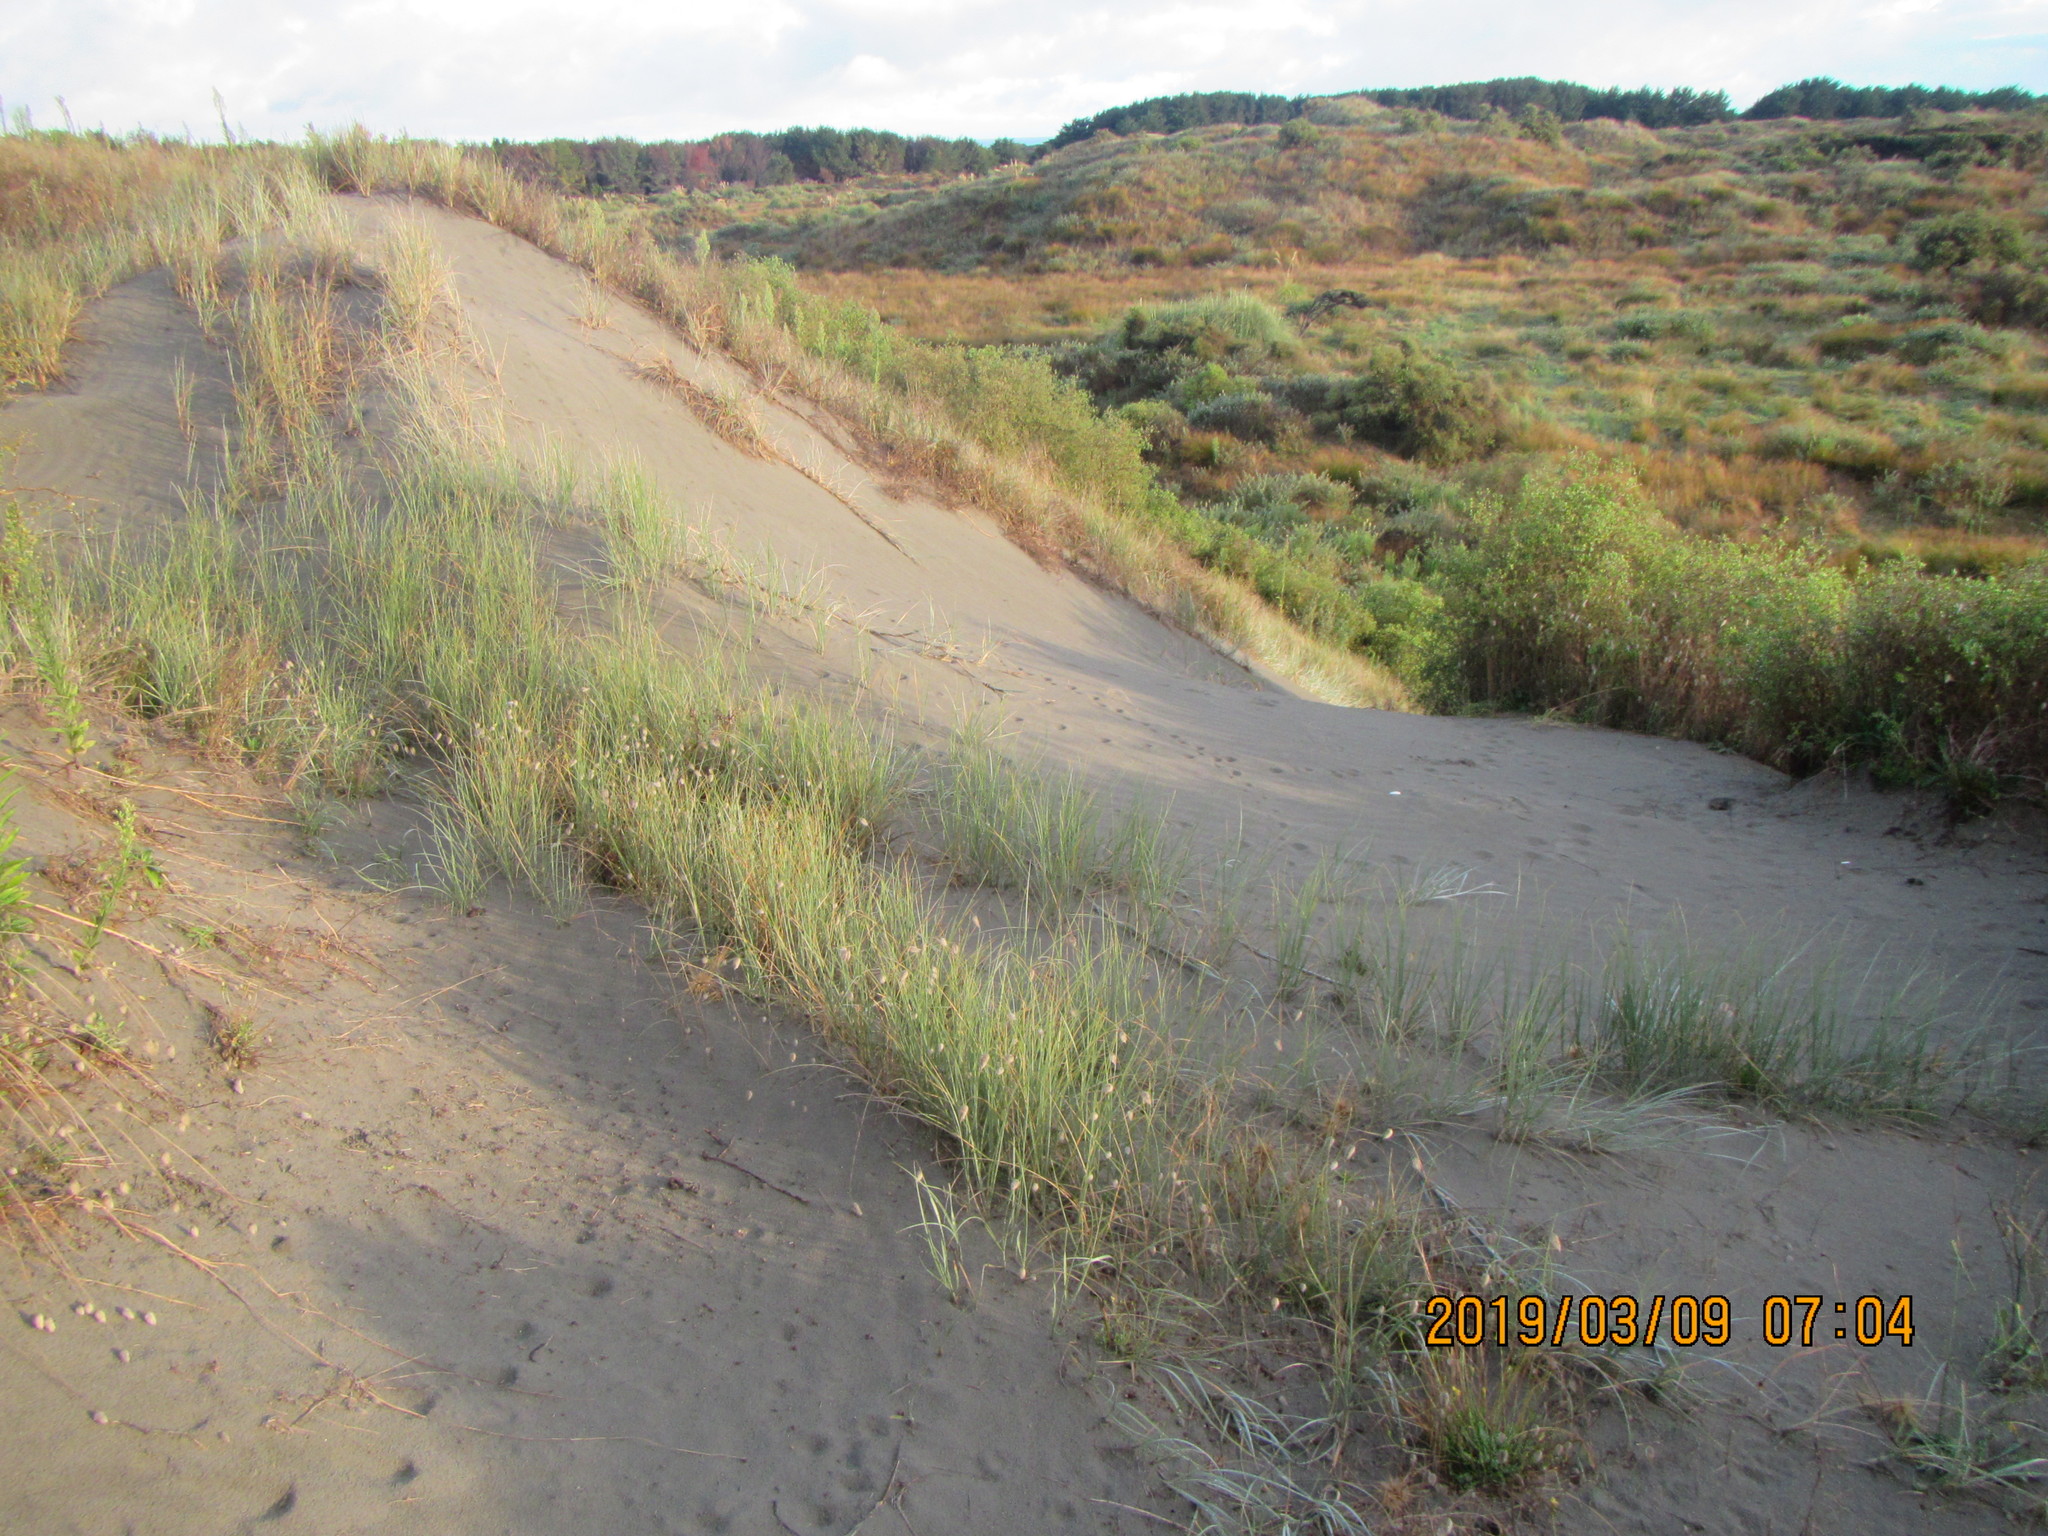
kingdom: Plantae
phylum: Tracheophyta
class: Liliopsida
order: Poales
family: Poaceae
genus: Spinifex
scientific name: Spinifex sericeus
